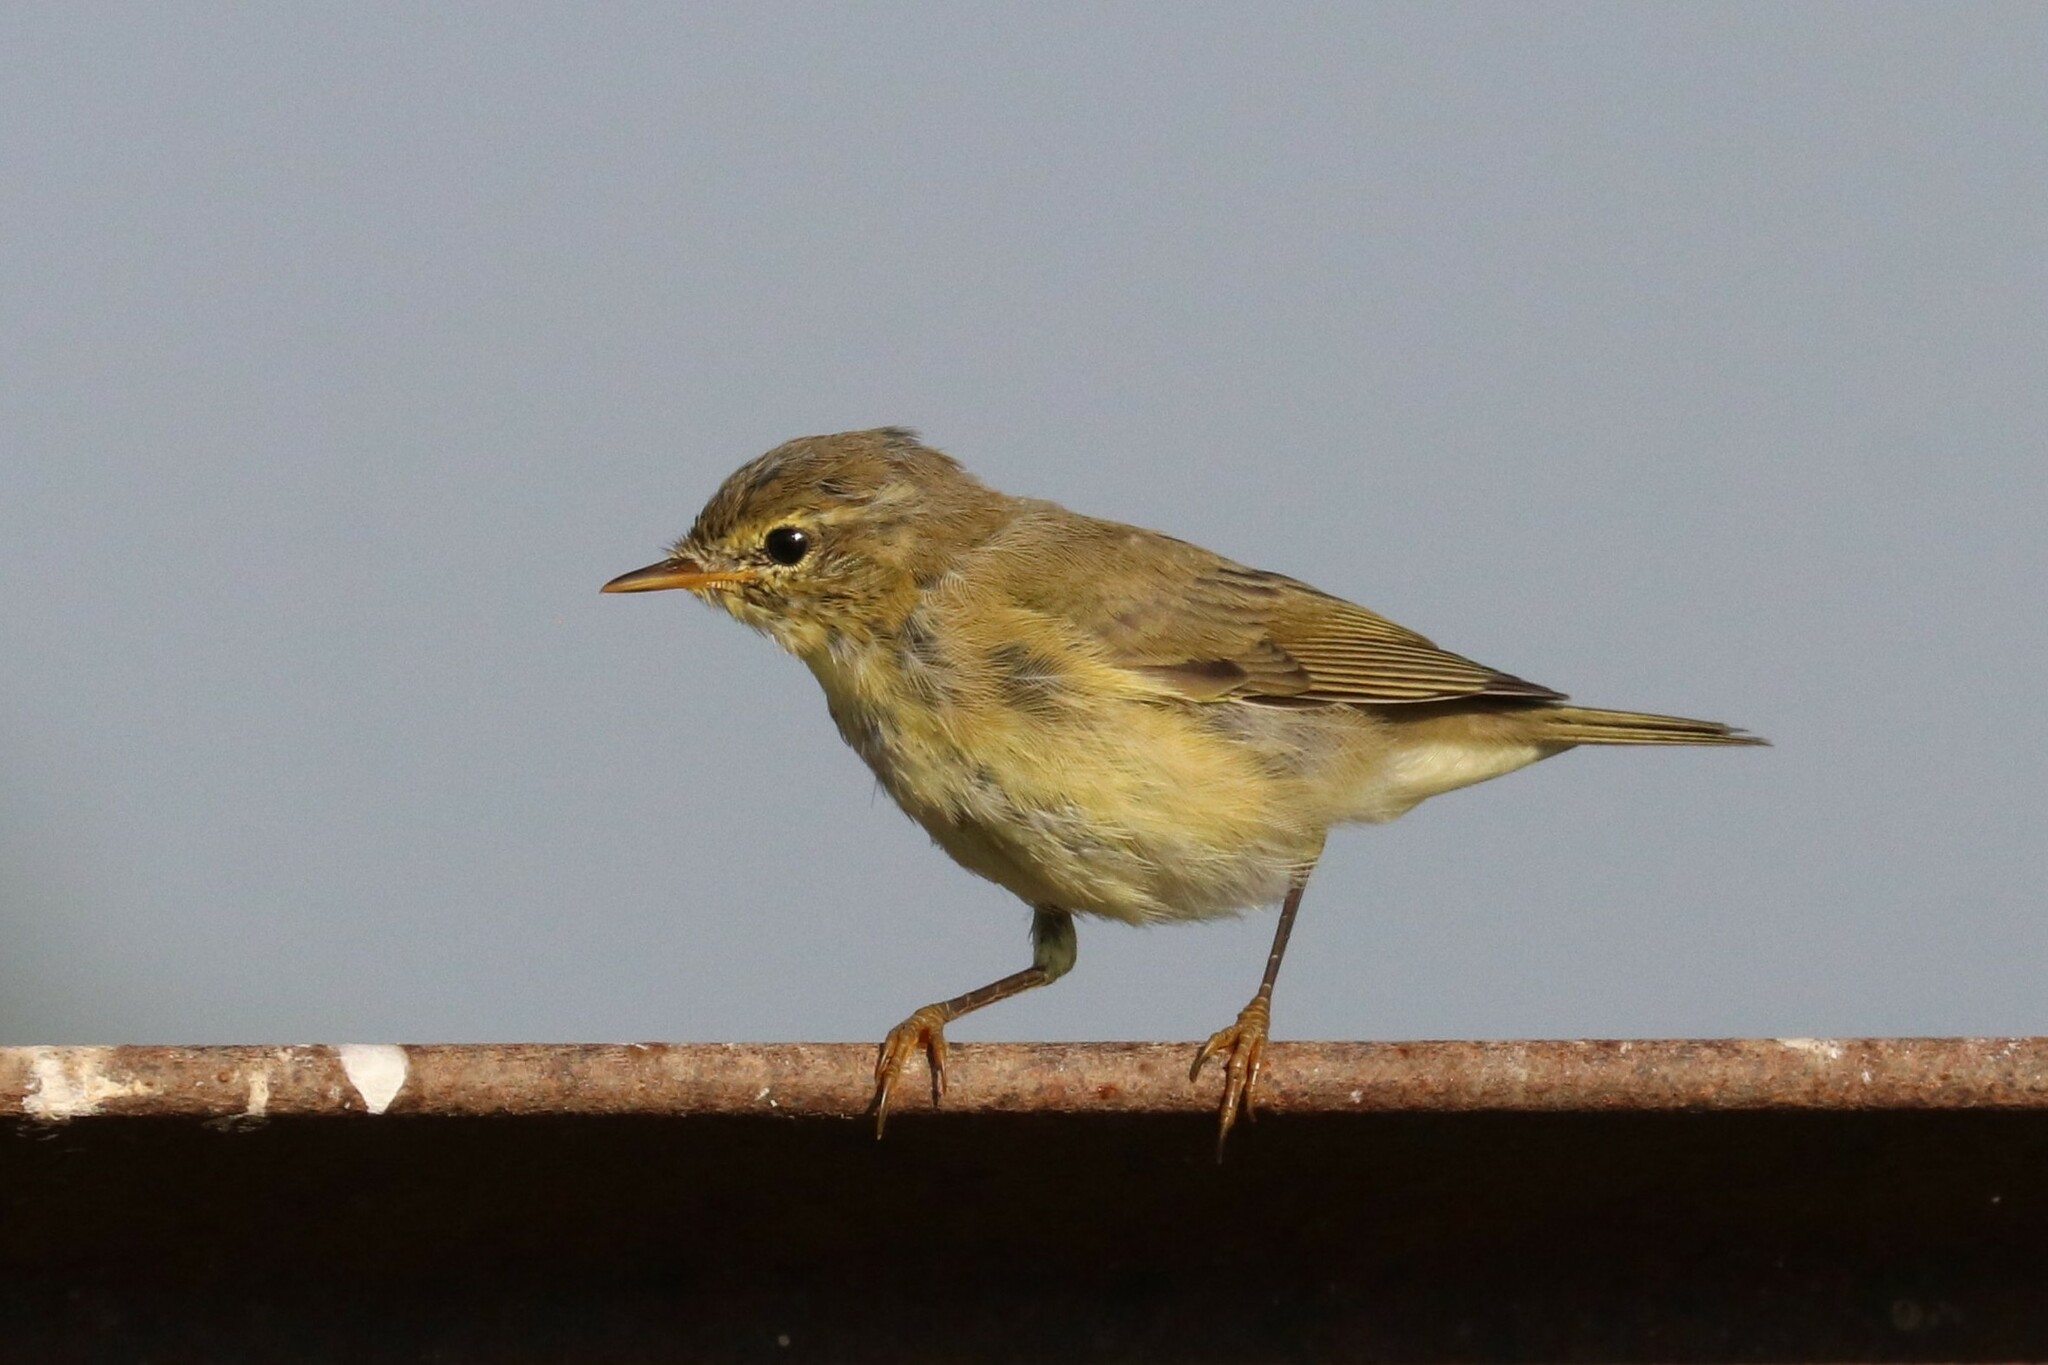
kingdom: Animalia
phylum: Chordata
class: Aves
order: Passeriformes
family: Phylloscopidae
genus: Phylloscopus
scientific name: Phylloscopus trochilus
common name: Willow warbler
